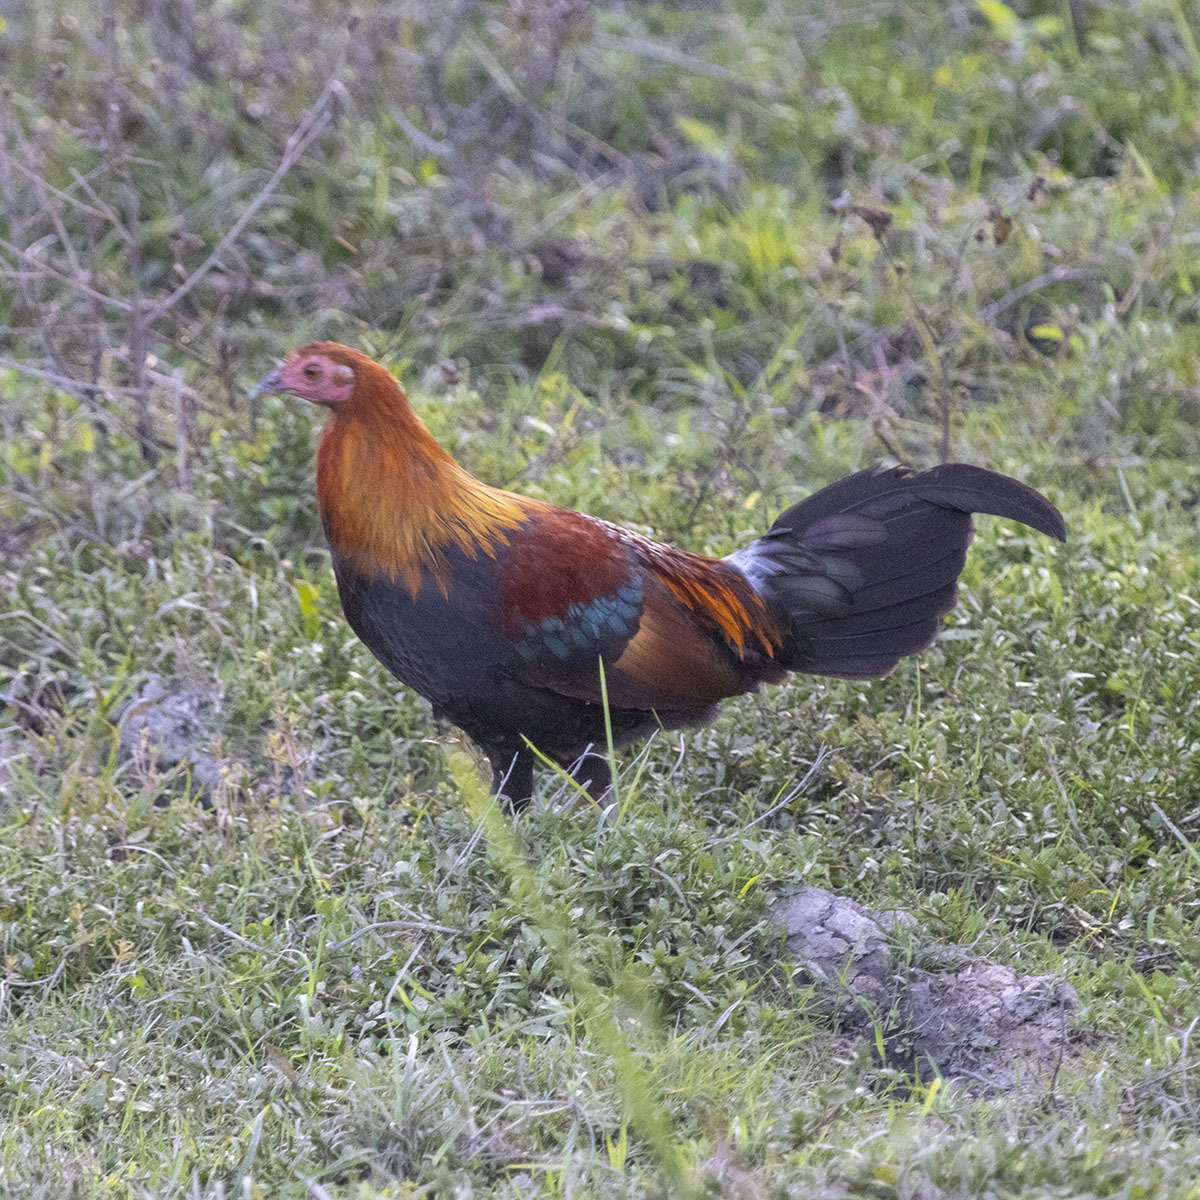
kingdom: Animalia
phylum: Chordata
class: Aves
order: Galliformes
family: Phasianidae
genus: Gallus
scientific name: Gallus gallus
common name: Red junglefowl
